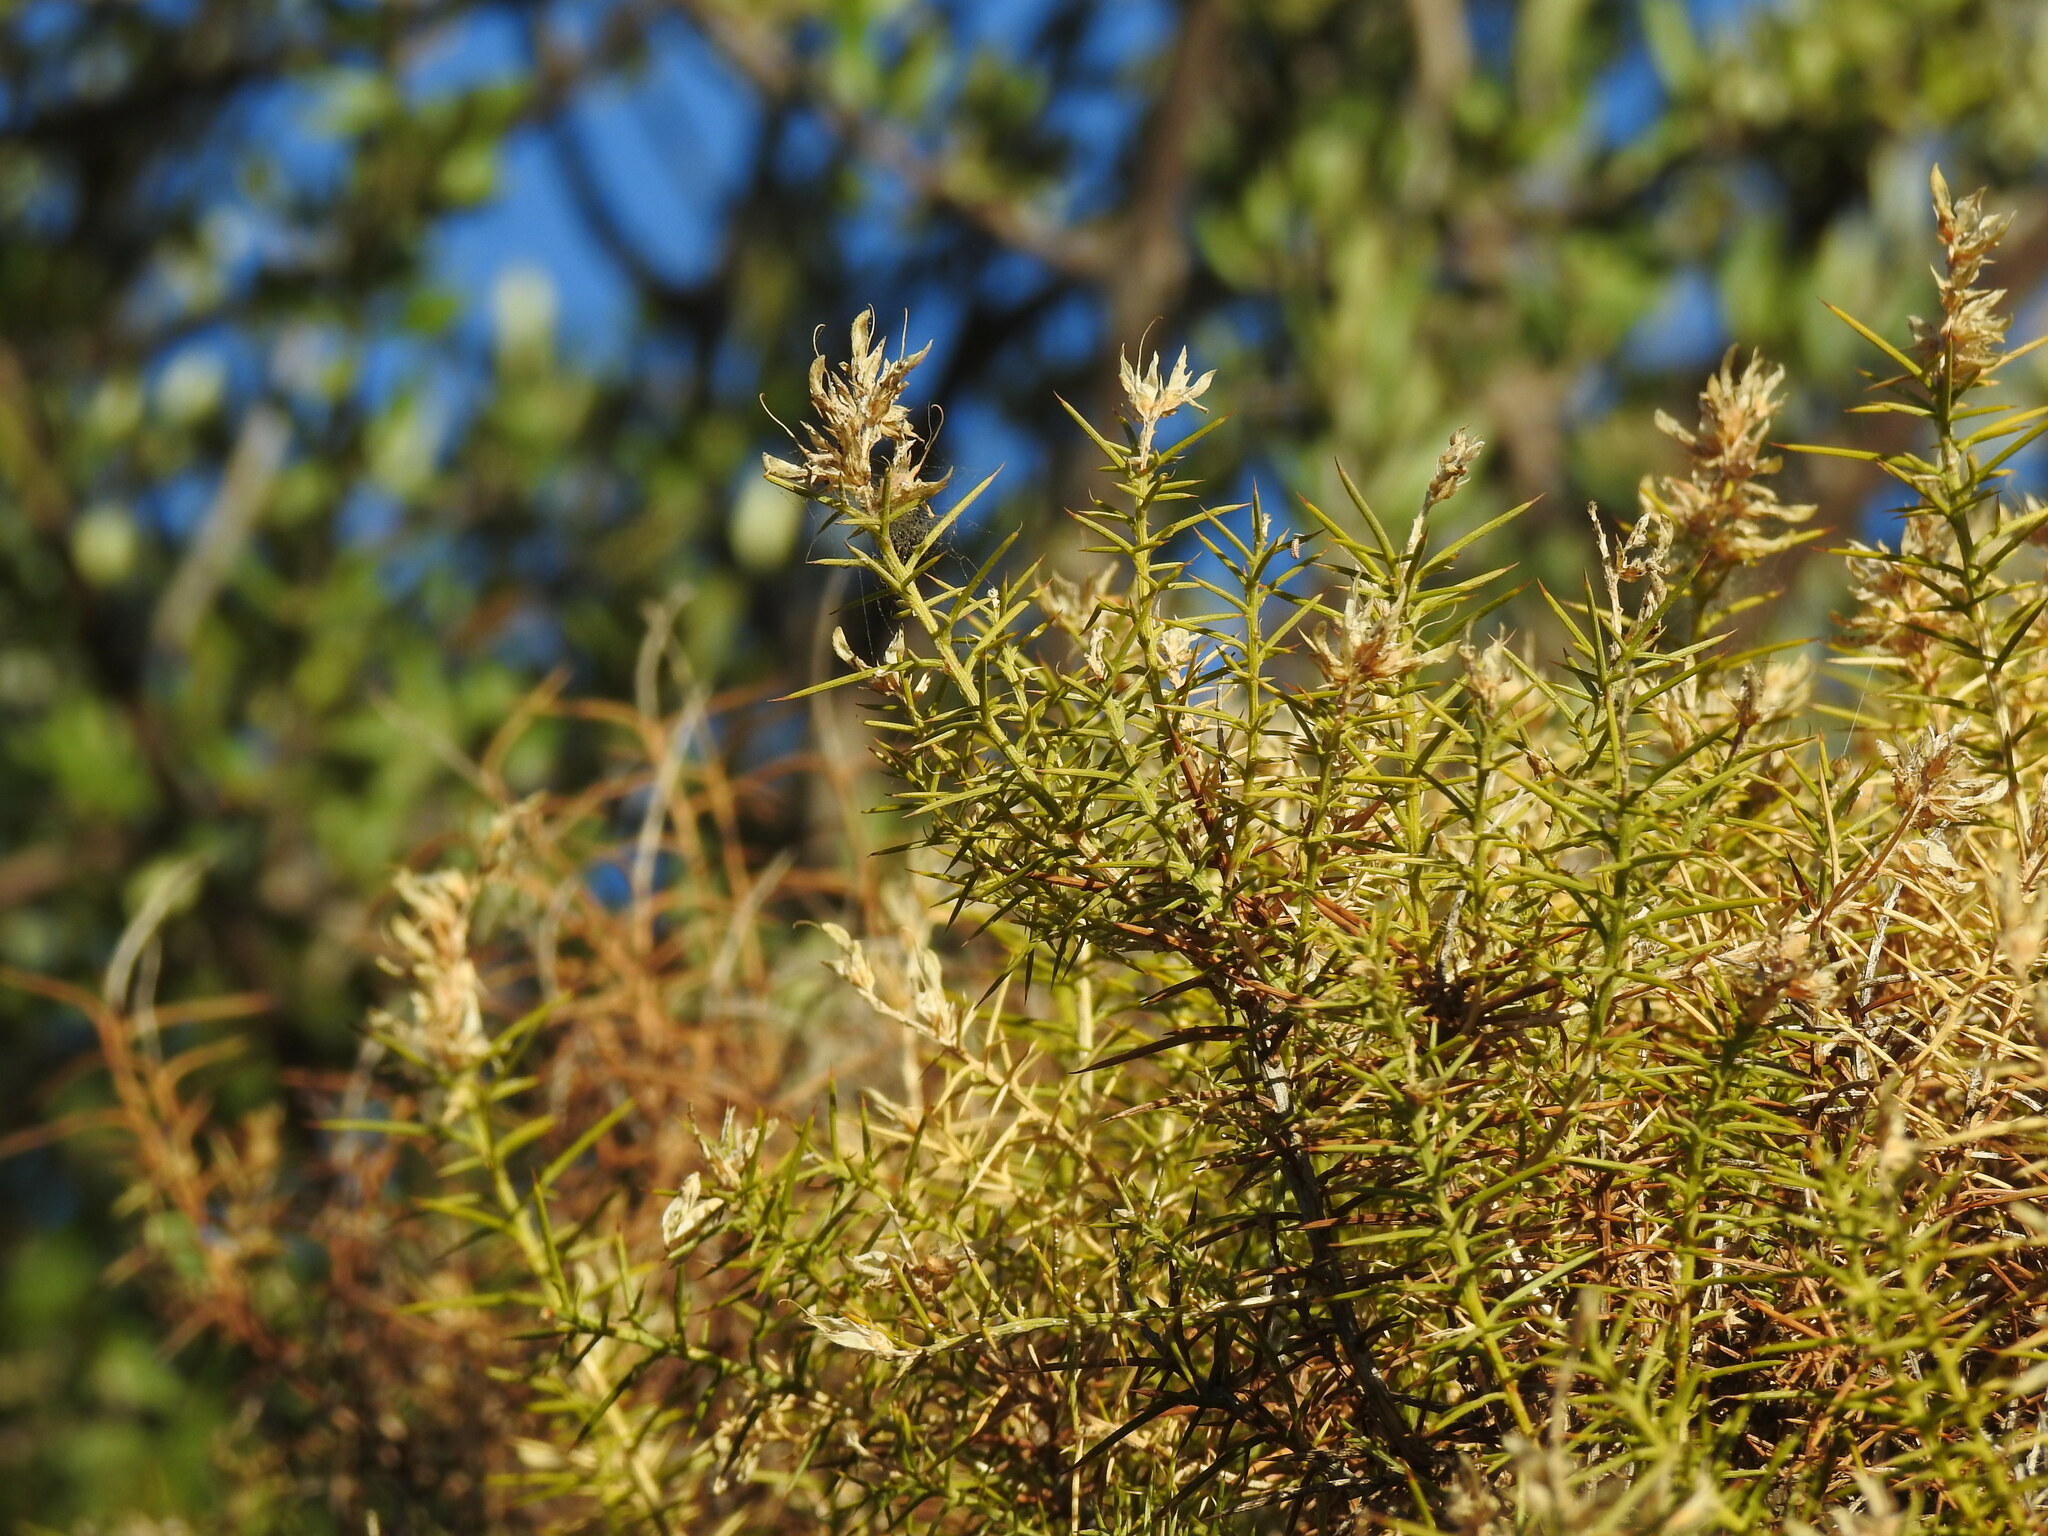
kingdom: Plantae
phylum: Tracheophyta
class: Magnoliopsida
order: Fabales
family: Fabaceae
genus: Genista
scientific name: Genista hirsuta
